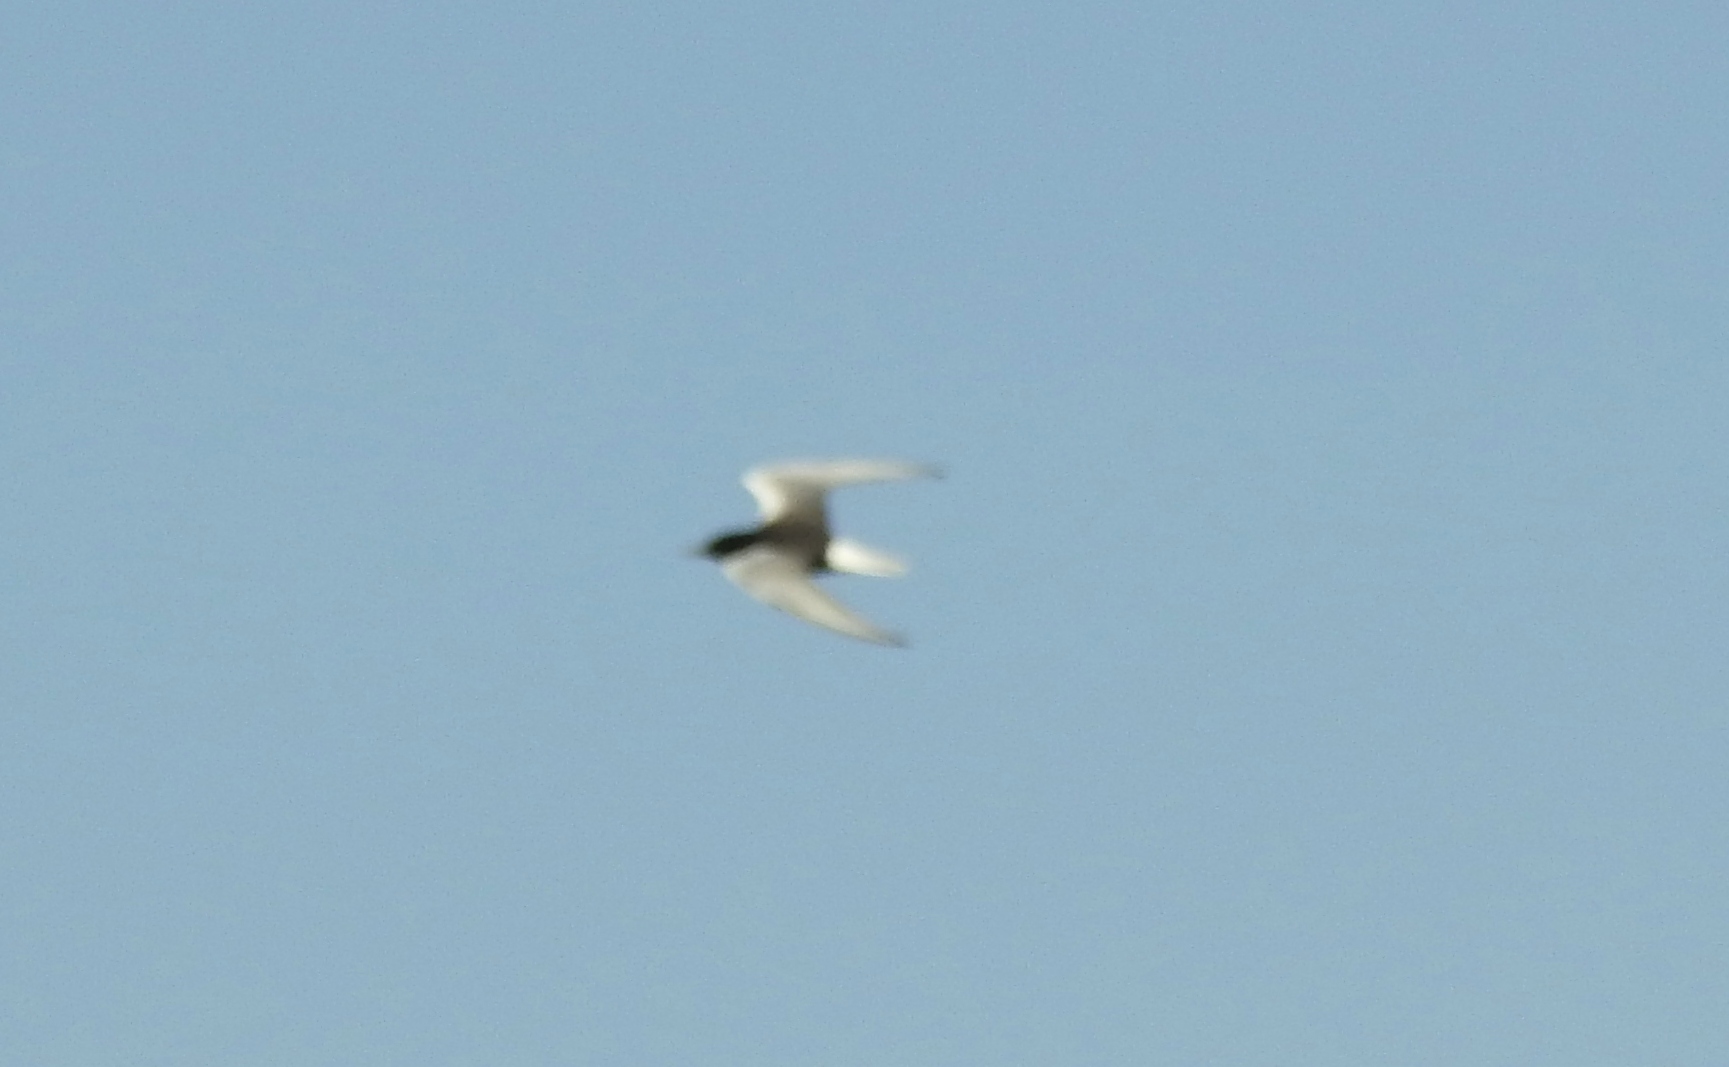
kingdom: Animalia
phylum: Chordata
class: Aves
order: Charadriiformes
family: Laridae
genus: Chlidonias
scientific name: Chlidonias leucopterus
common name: White-winged tern
